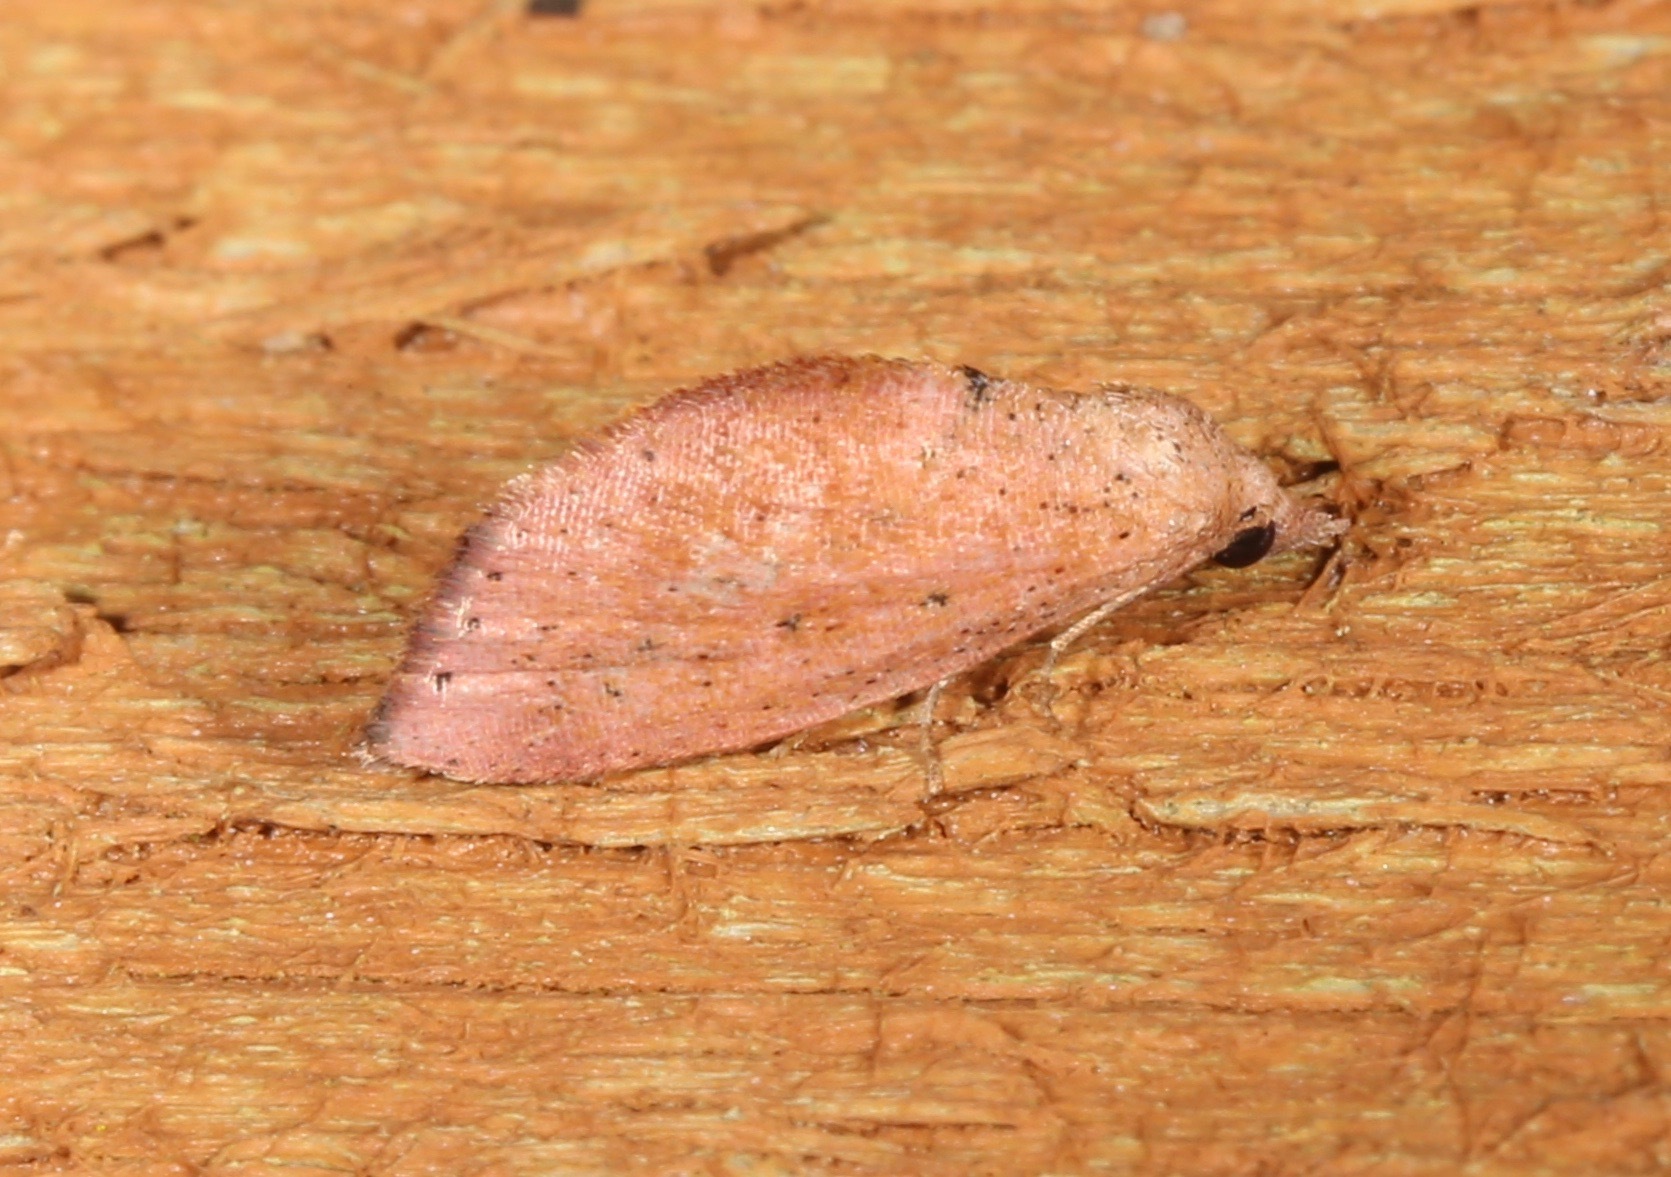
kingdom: Animalia
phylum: Arthropoda
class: Insecta
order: Lepidoptera
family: Noctuidae
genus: Proroblemma
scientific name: Proroblemma testa
